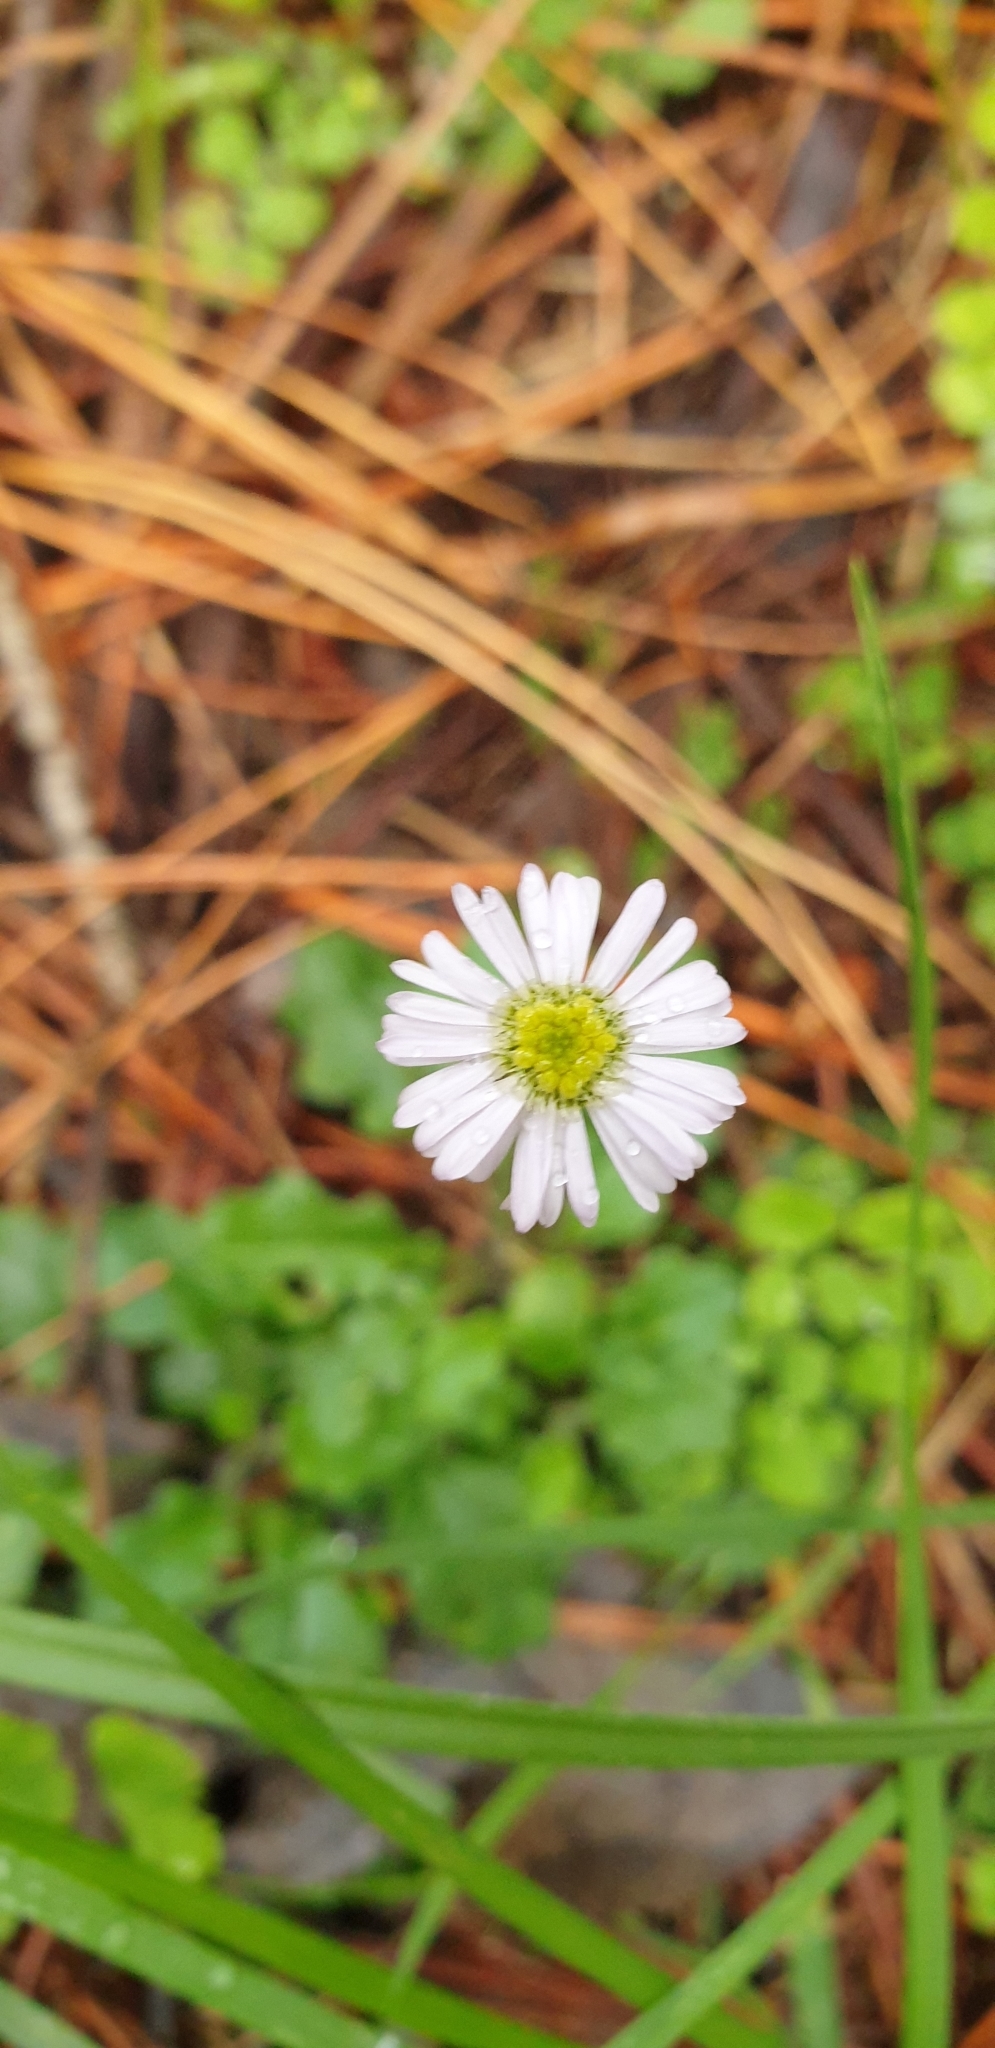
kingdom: Plantae
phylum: Tracheophyta
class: Magnoliopsida
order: Asterales
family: Asteraceae
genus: Lagenophora
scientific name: Lagenophora stipitata
